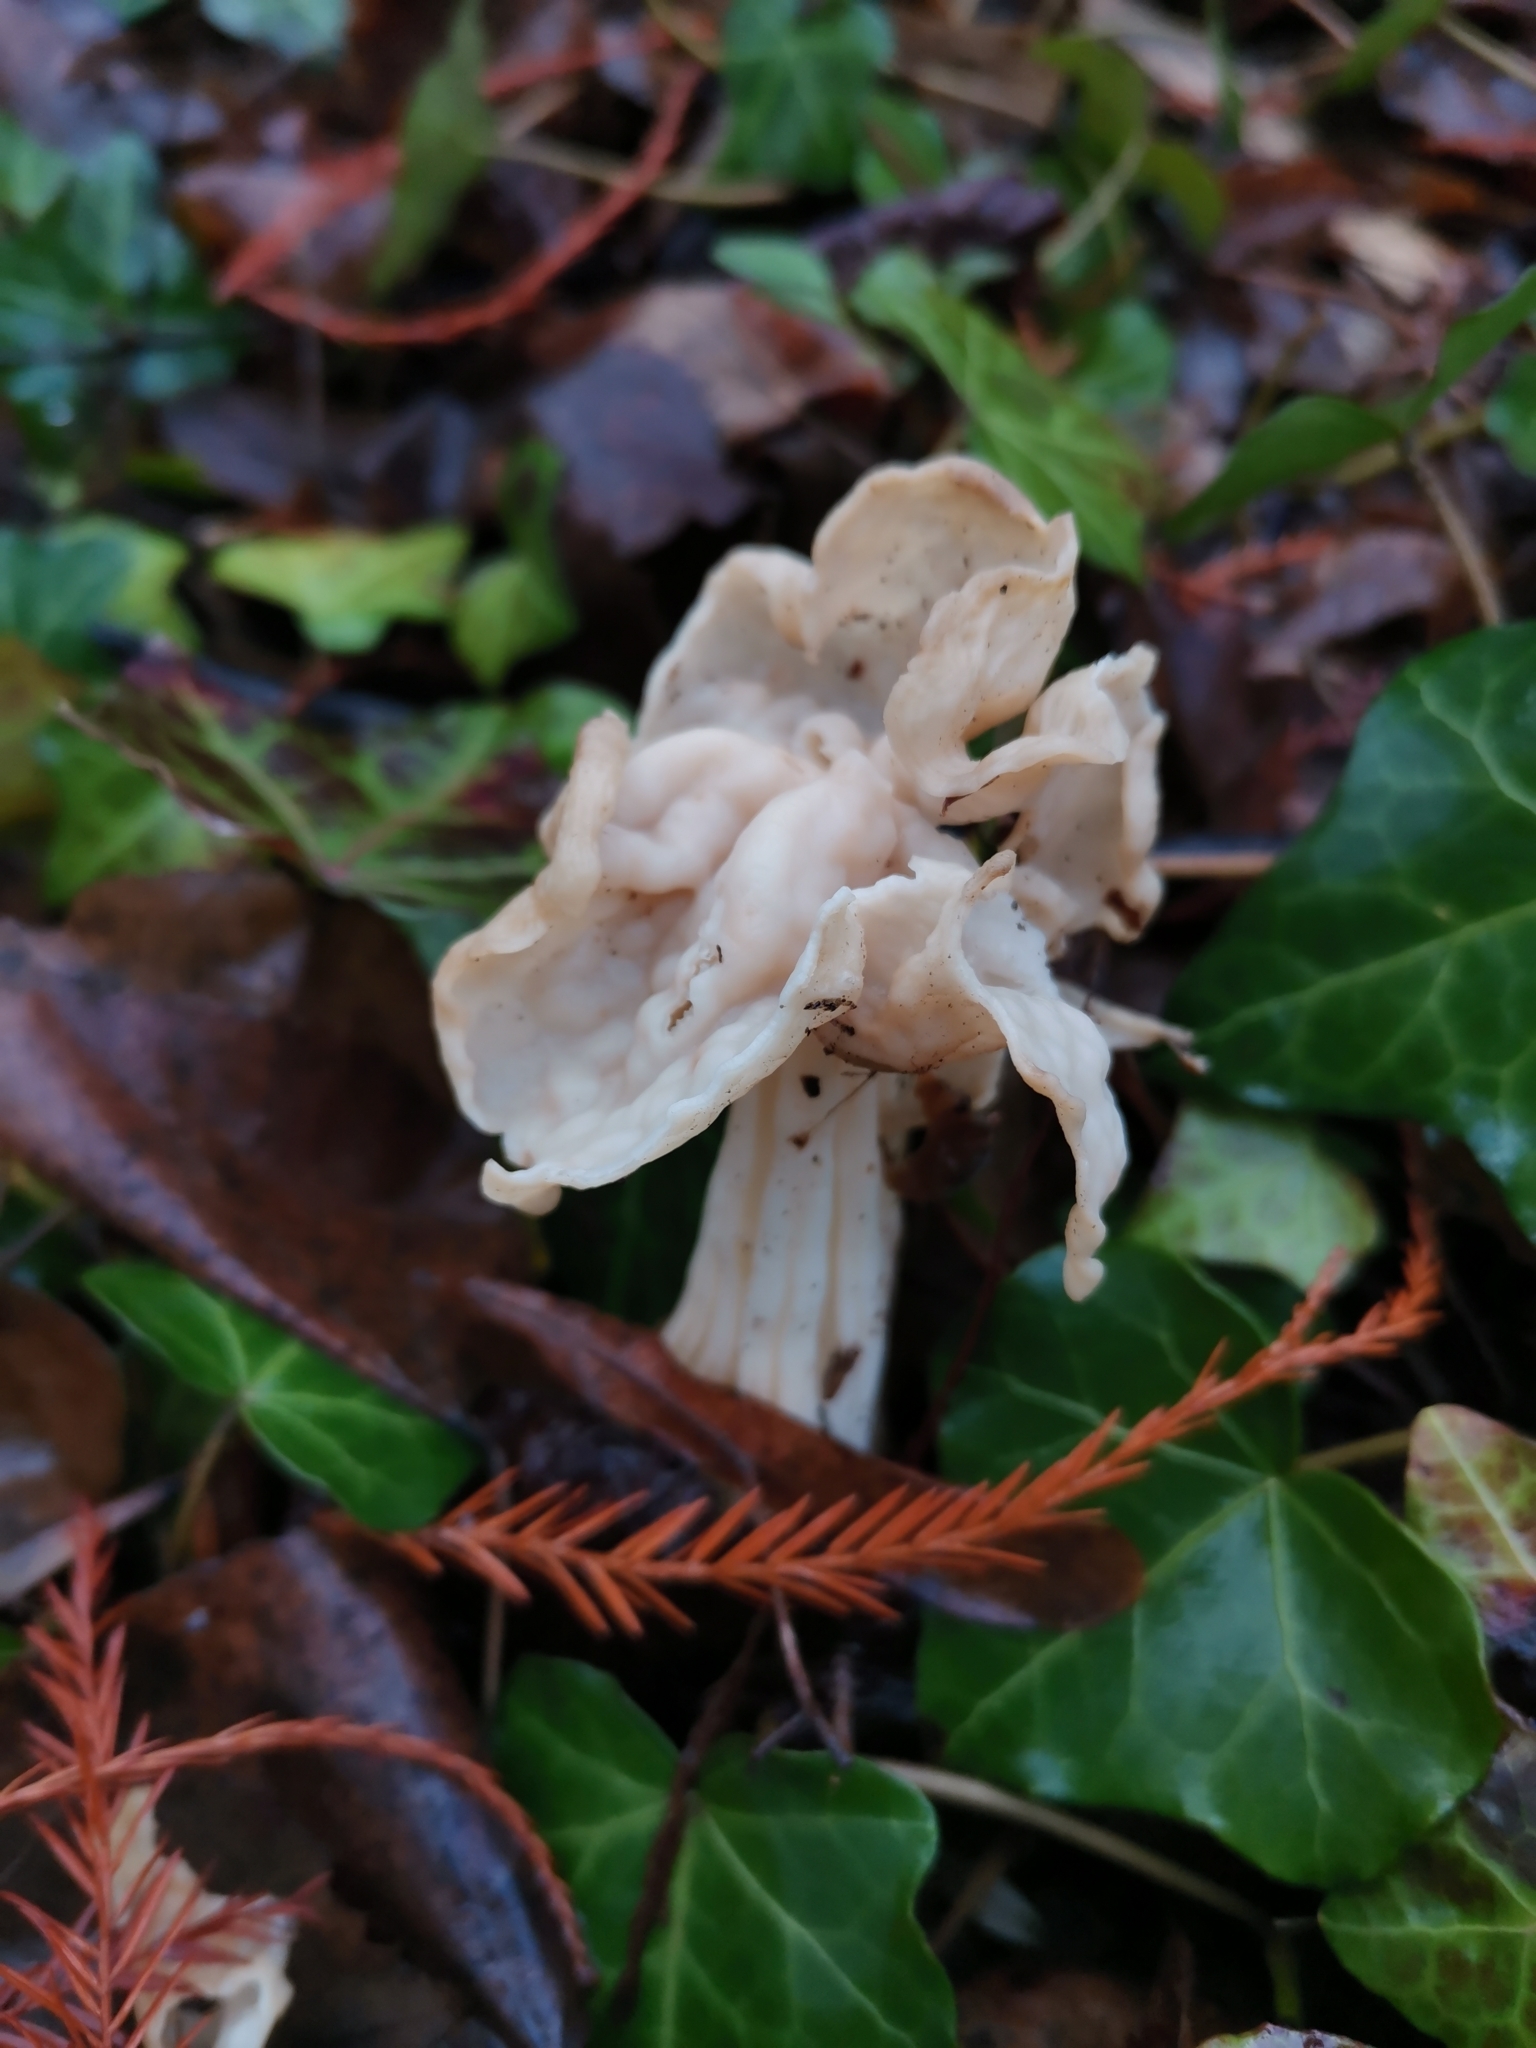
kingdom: Fungi
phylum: Ascomycota
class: Pezizomycetes
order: Pezizales
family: Helvellaceae
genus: Helvella
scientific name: Helvella crispa
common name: White saddle
